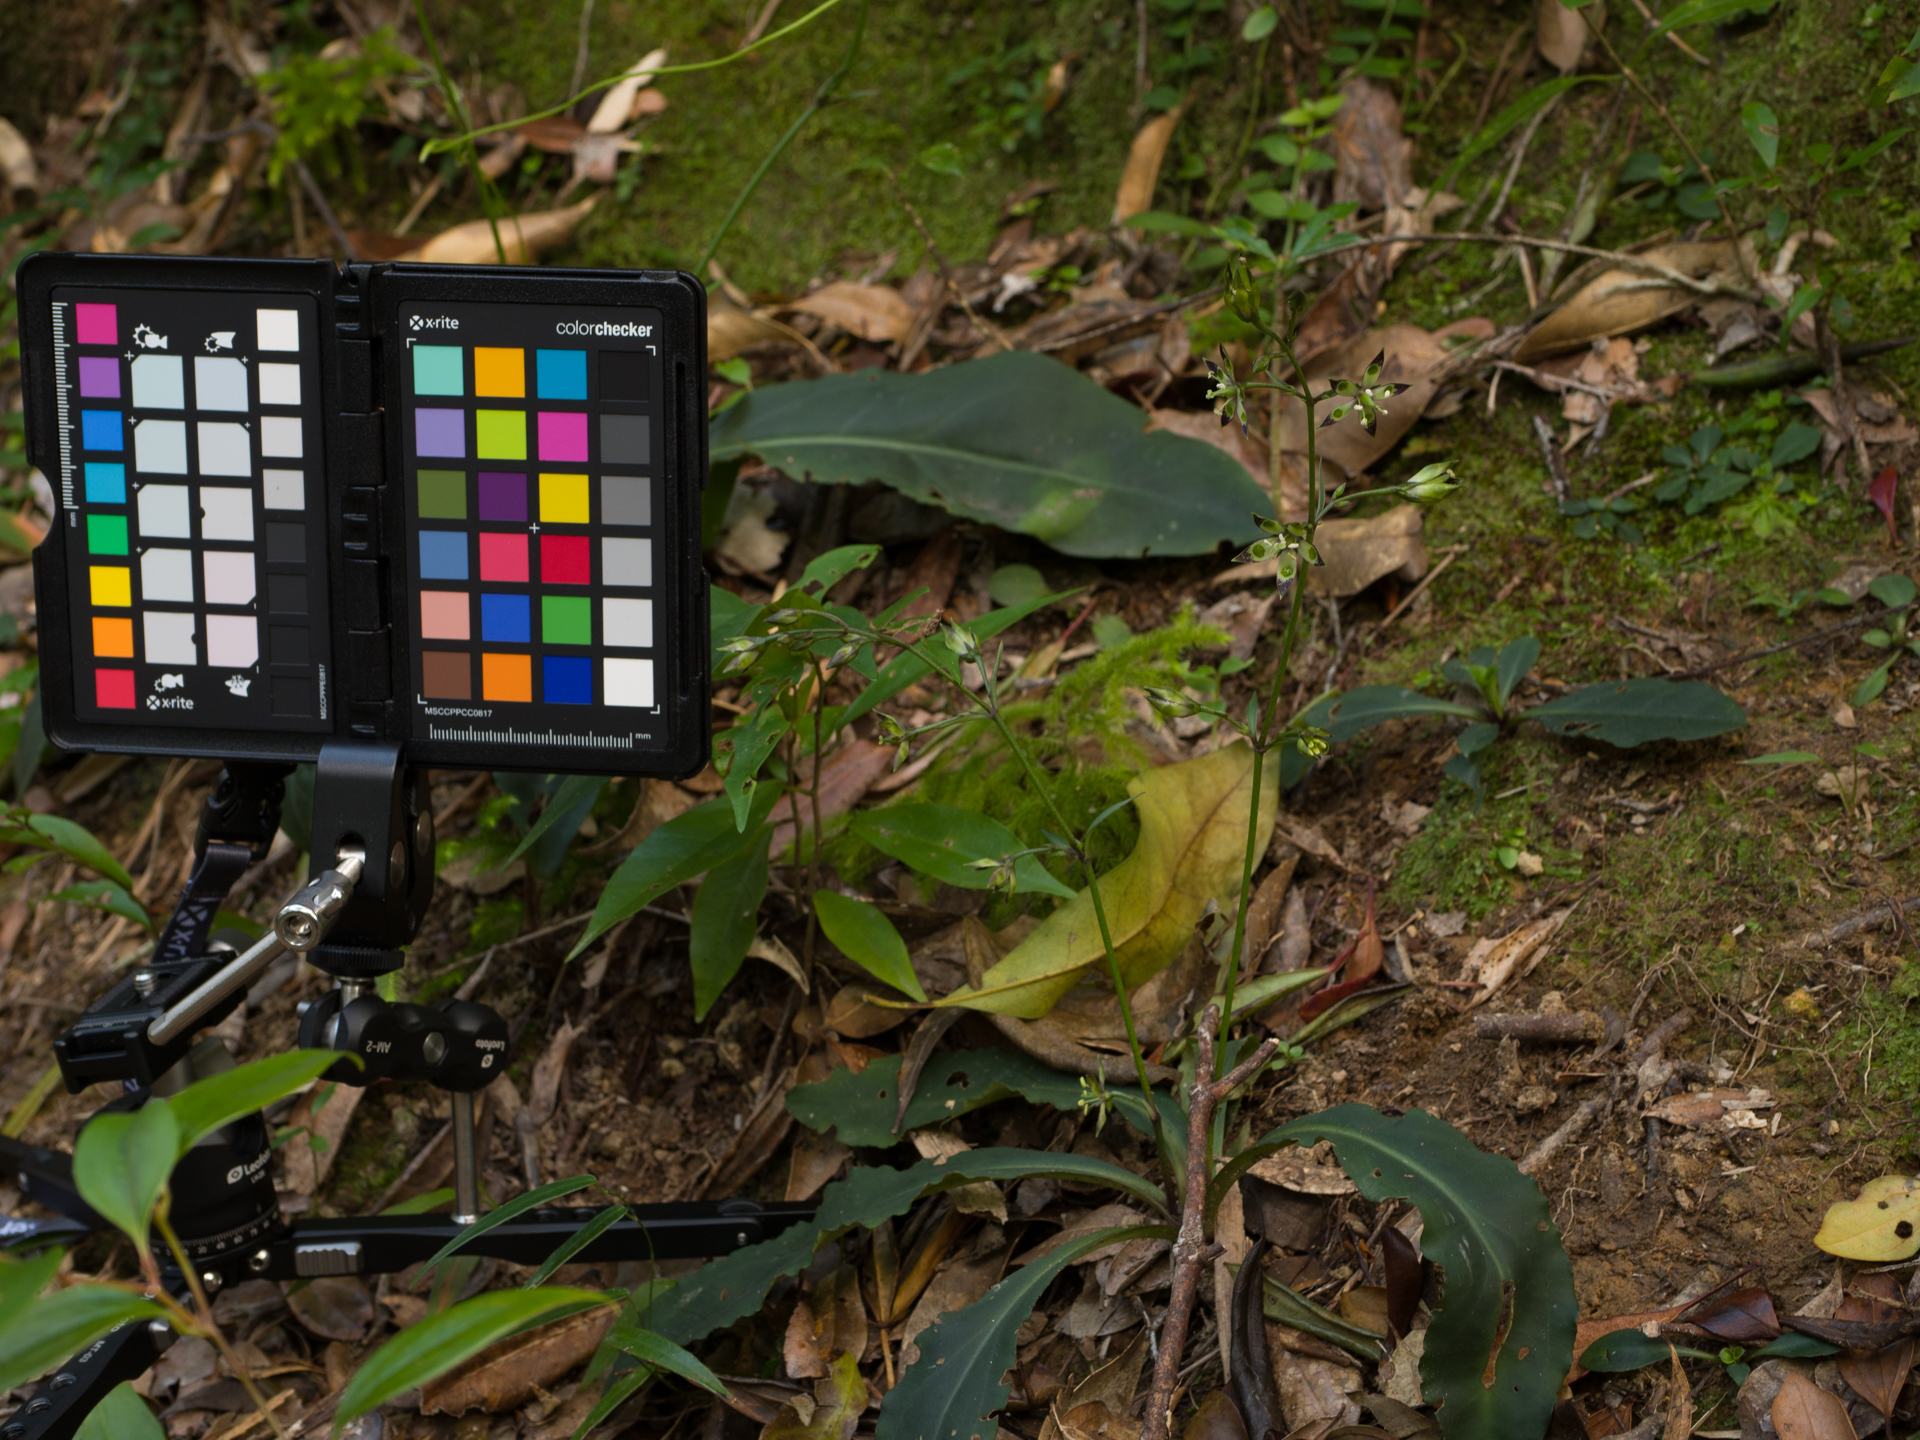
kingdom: Plantae
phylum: Tracheophyta
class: Magnoliopsida
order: Gentianales
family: Gentianaceae
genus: Swertia
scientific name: Swertia tashiroi
